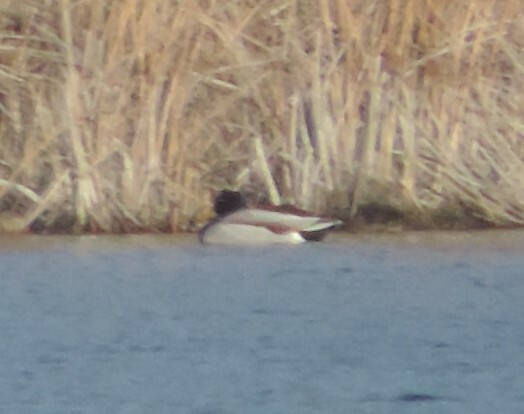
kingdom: Animalia
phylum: Chordata
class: Aves
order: Anseriformes
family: Anatidae
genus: Anas
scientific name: Anas platyrhynchos
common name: Mallard
